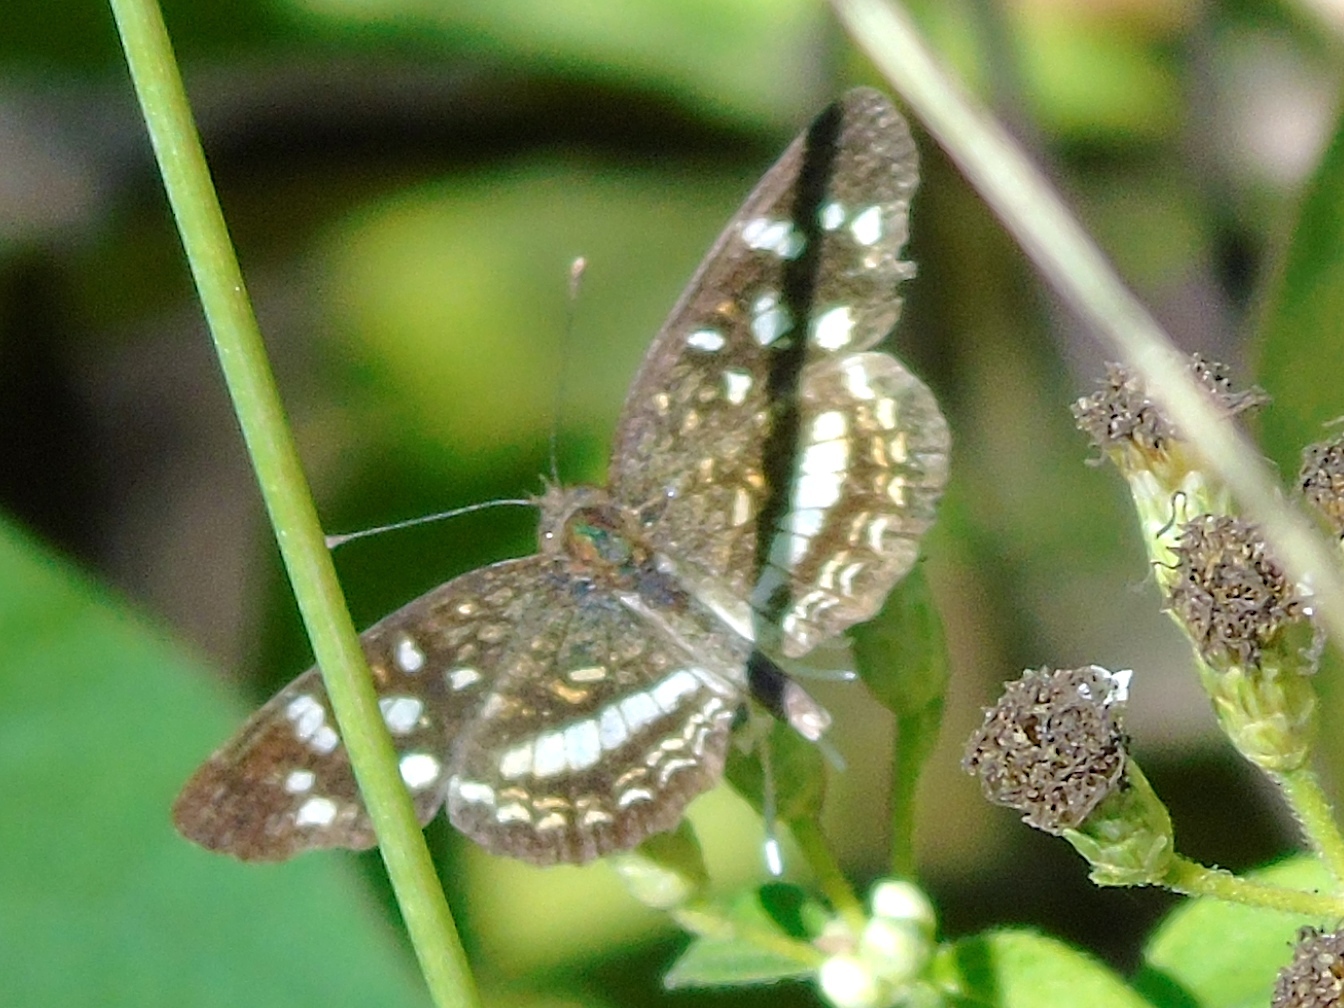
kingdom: Animalia
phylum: Arthropoda
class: Insecta
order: Lepidoptera
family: Nymphalidae
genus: Anthanassa
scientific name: Anthanassa tulcis
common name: Pale-banded crescent
